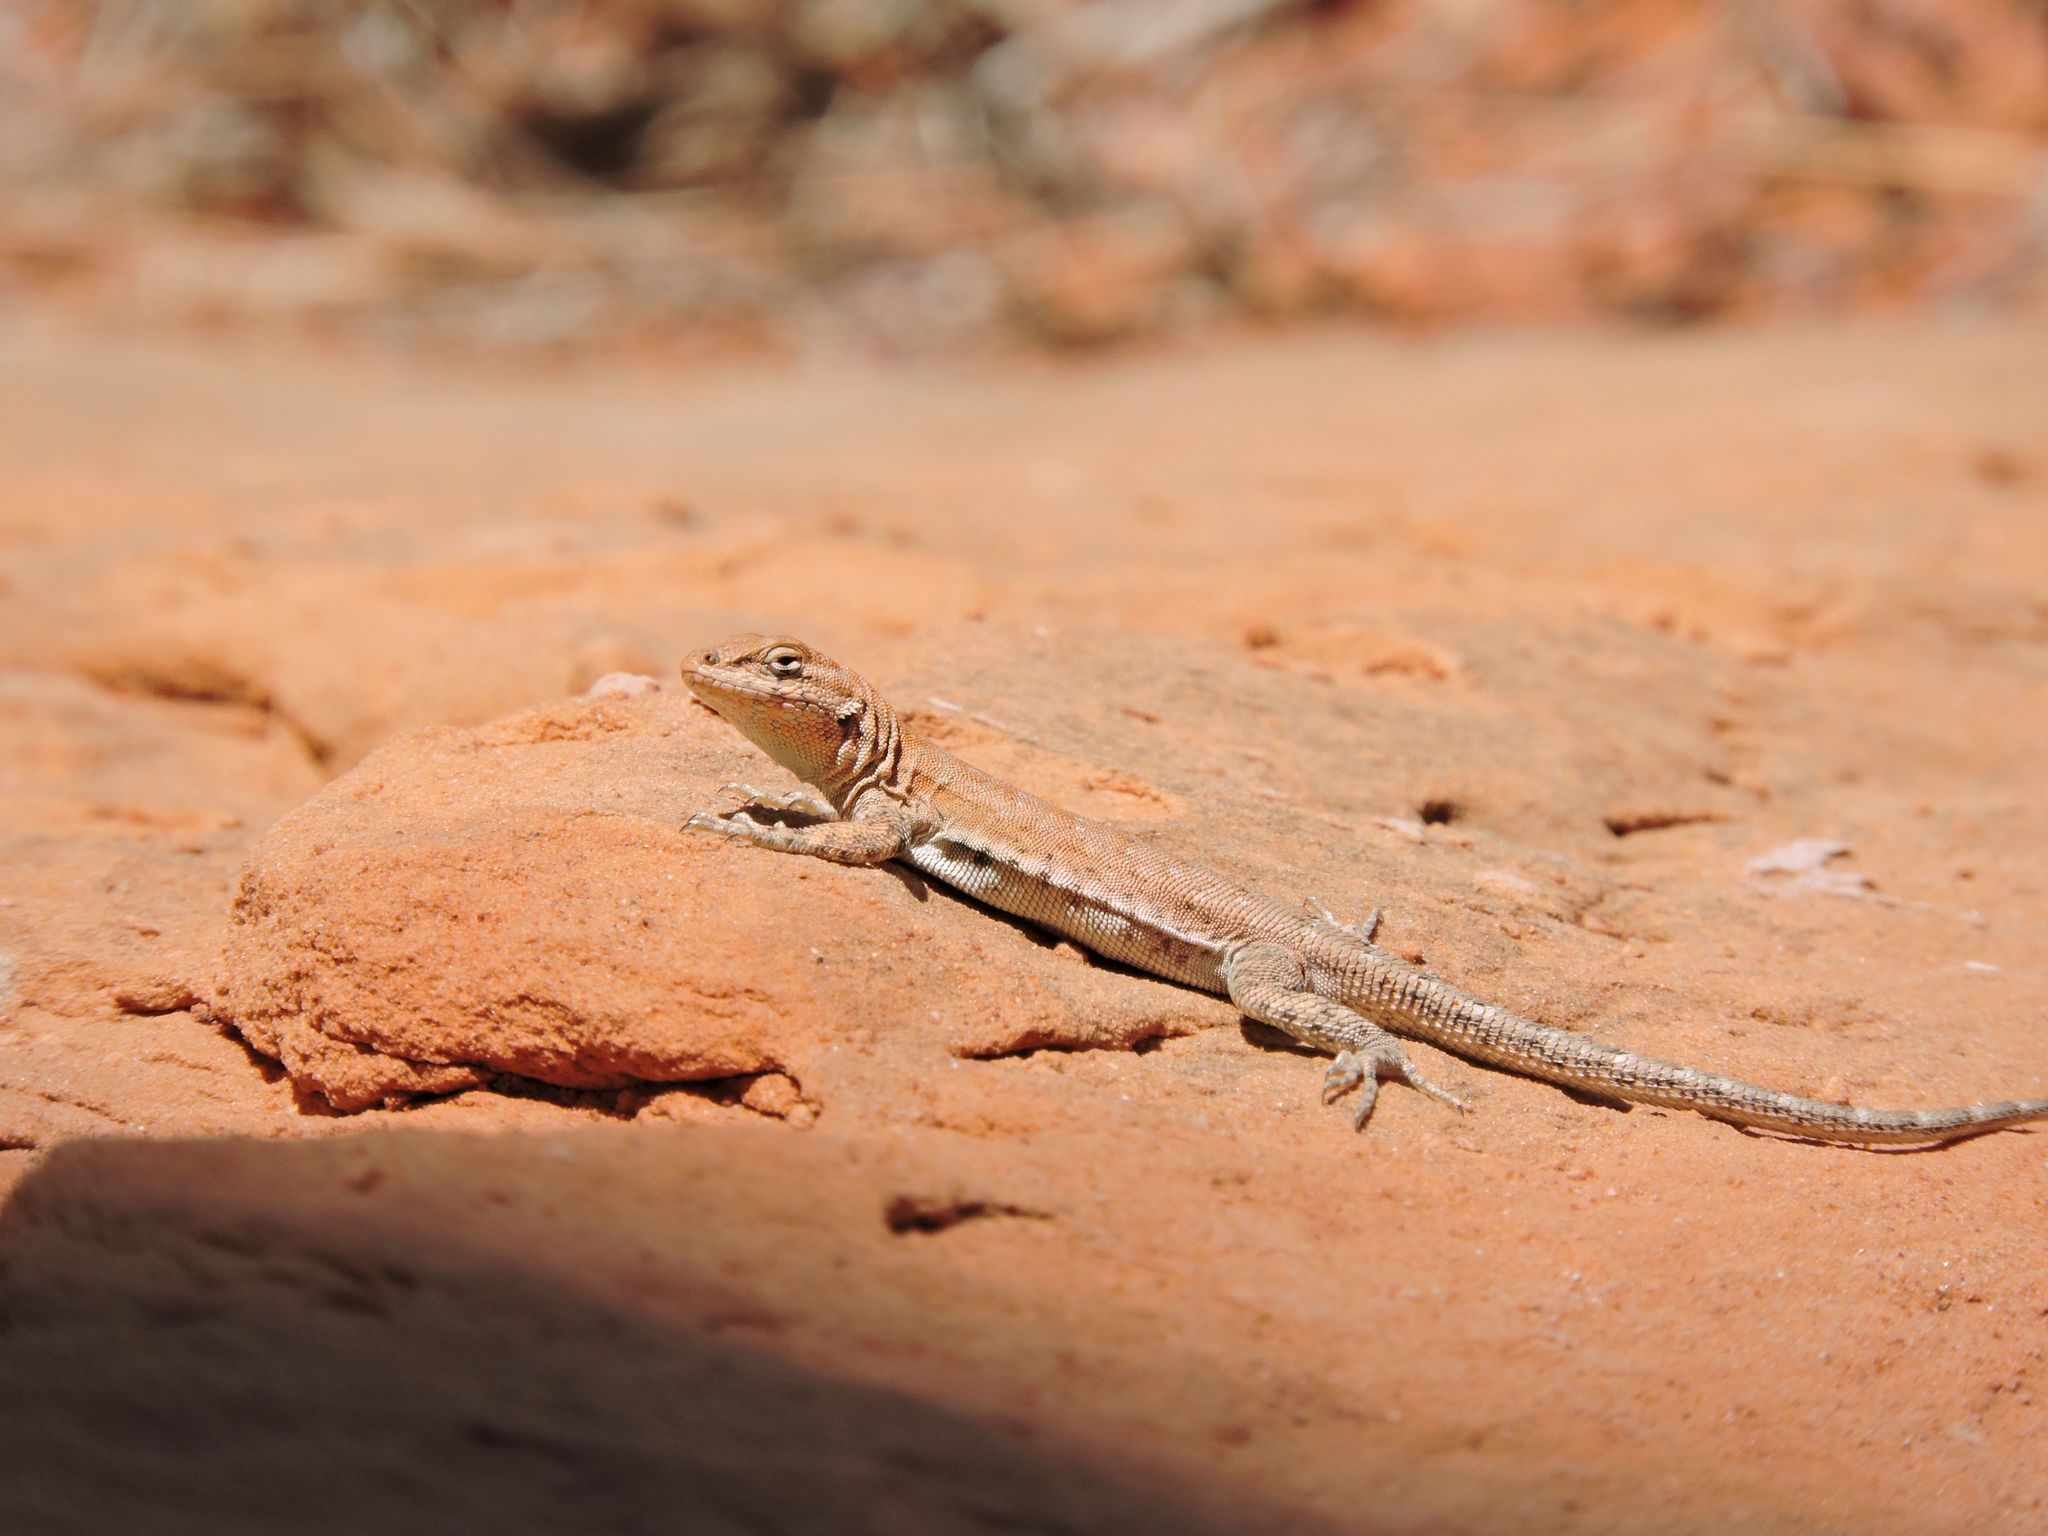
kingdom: Animalia
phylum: Chordata
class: Squamata
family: Phrynosomatidae
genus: Uta
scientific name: Uta stansburiana
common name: Side-blotched lizard
